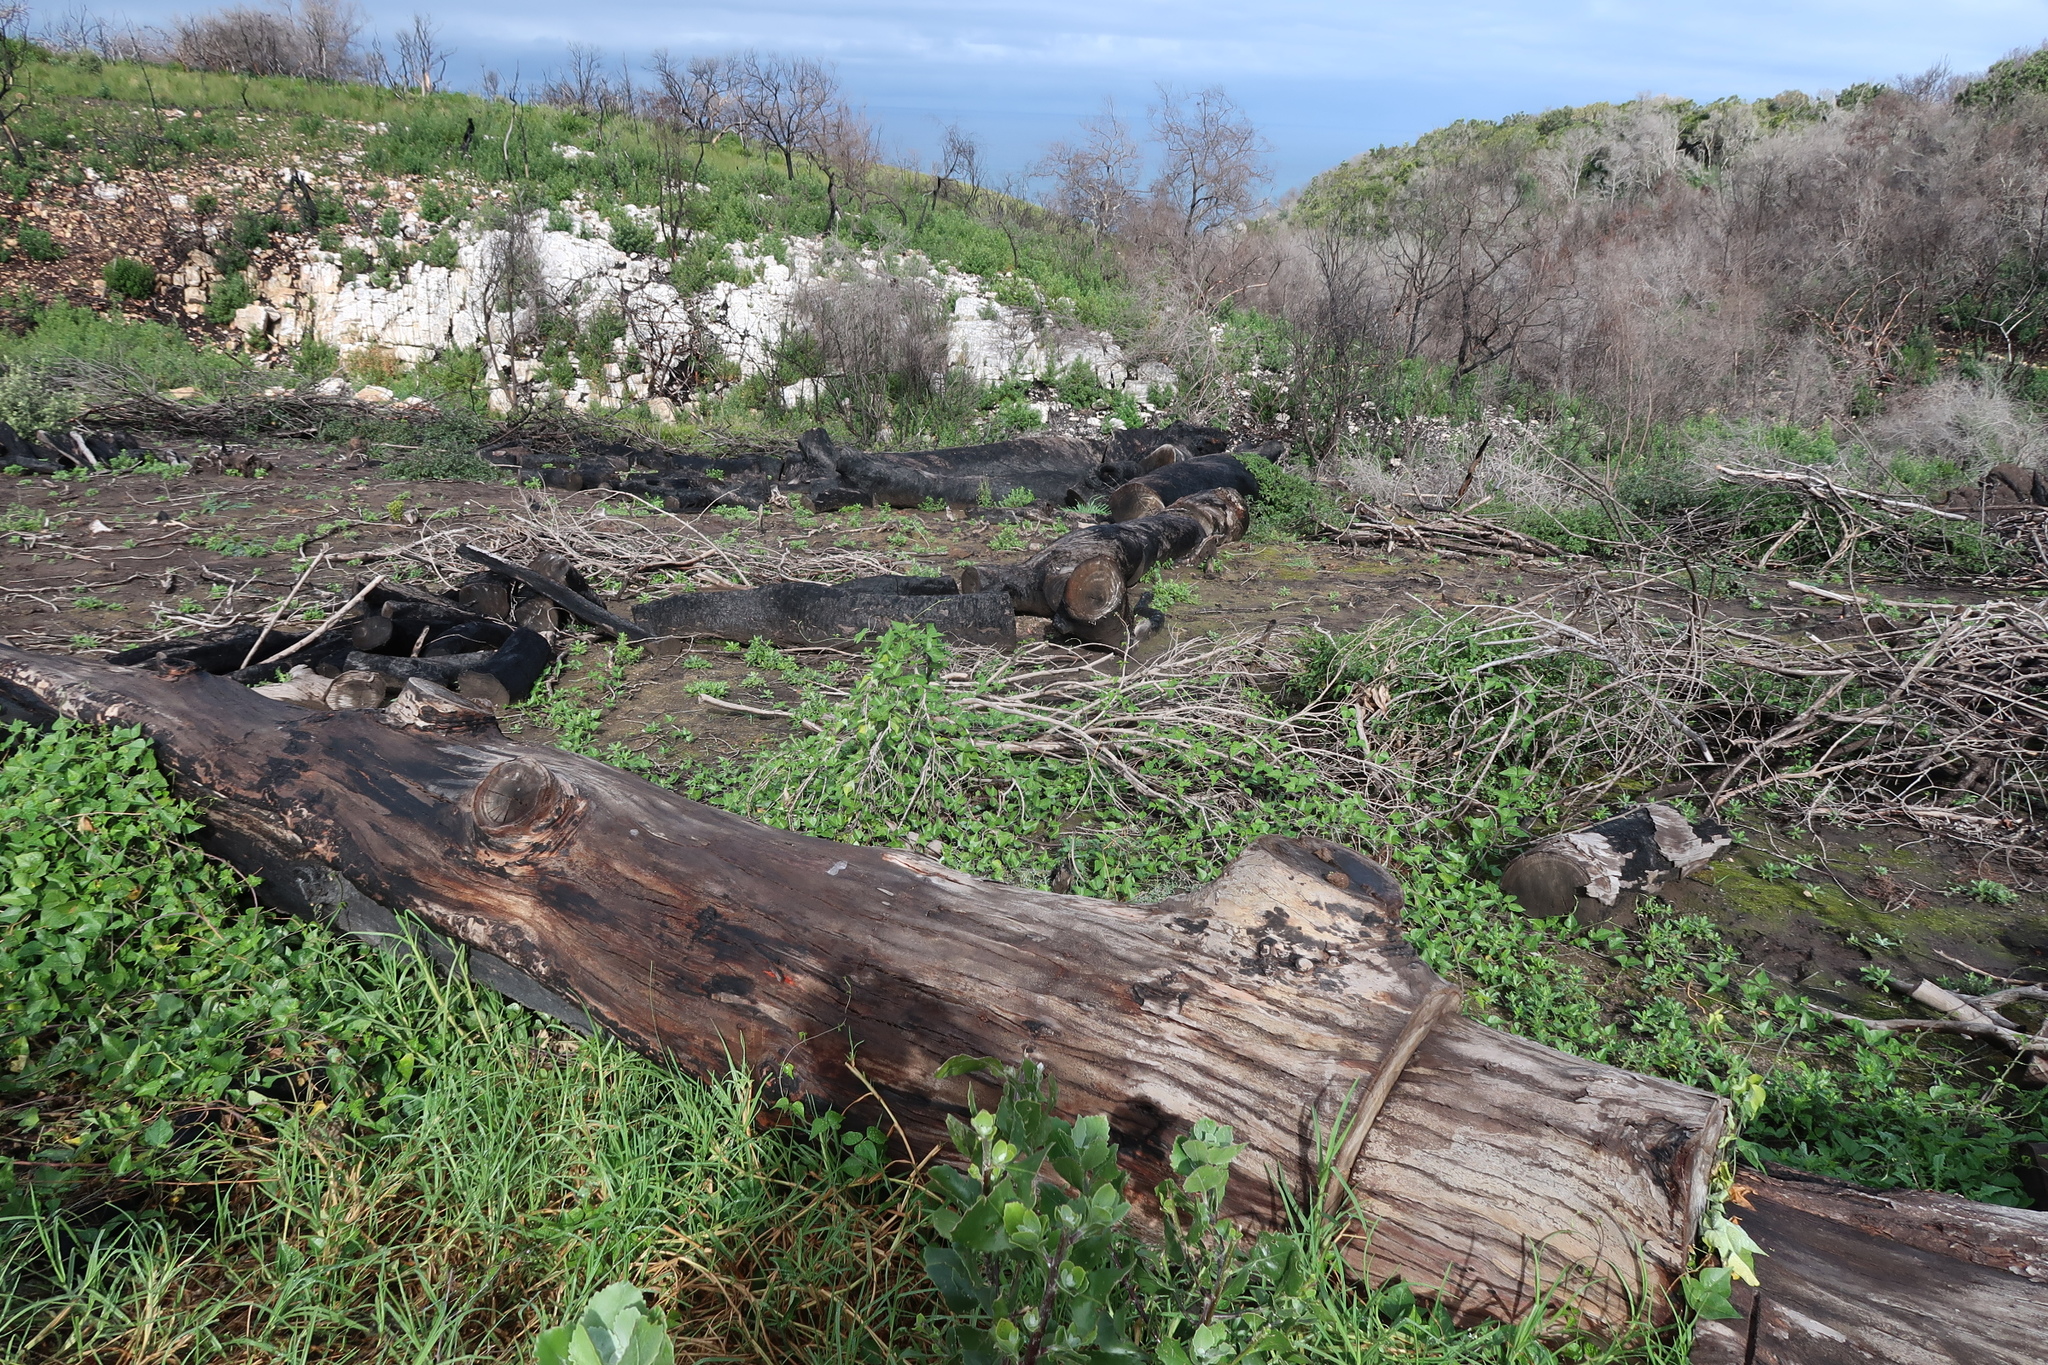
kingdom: Plantae
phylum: Tracheophyta
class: Magnoliopsida
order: Fabales
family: Fabaceae
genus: Dipogon
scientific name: Dipogon lignosus
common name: Okie bean
